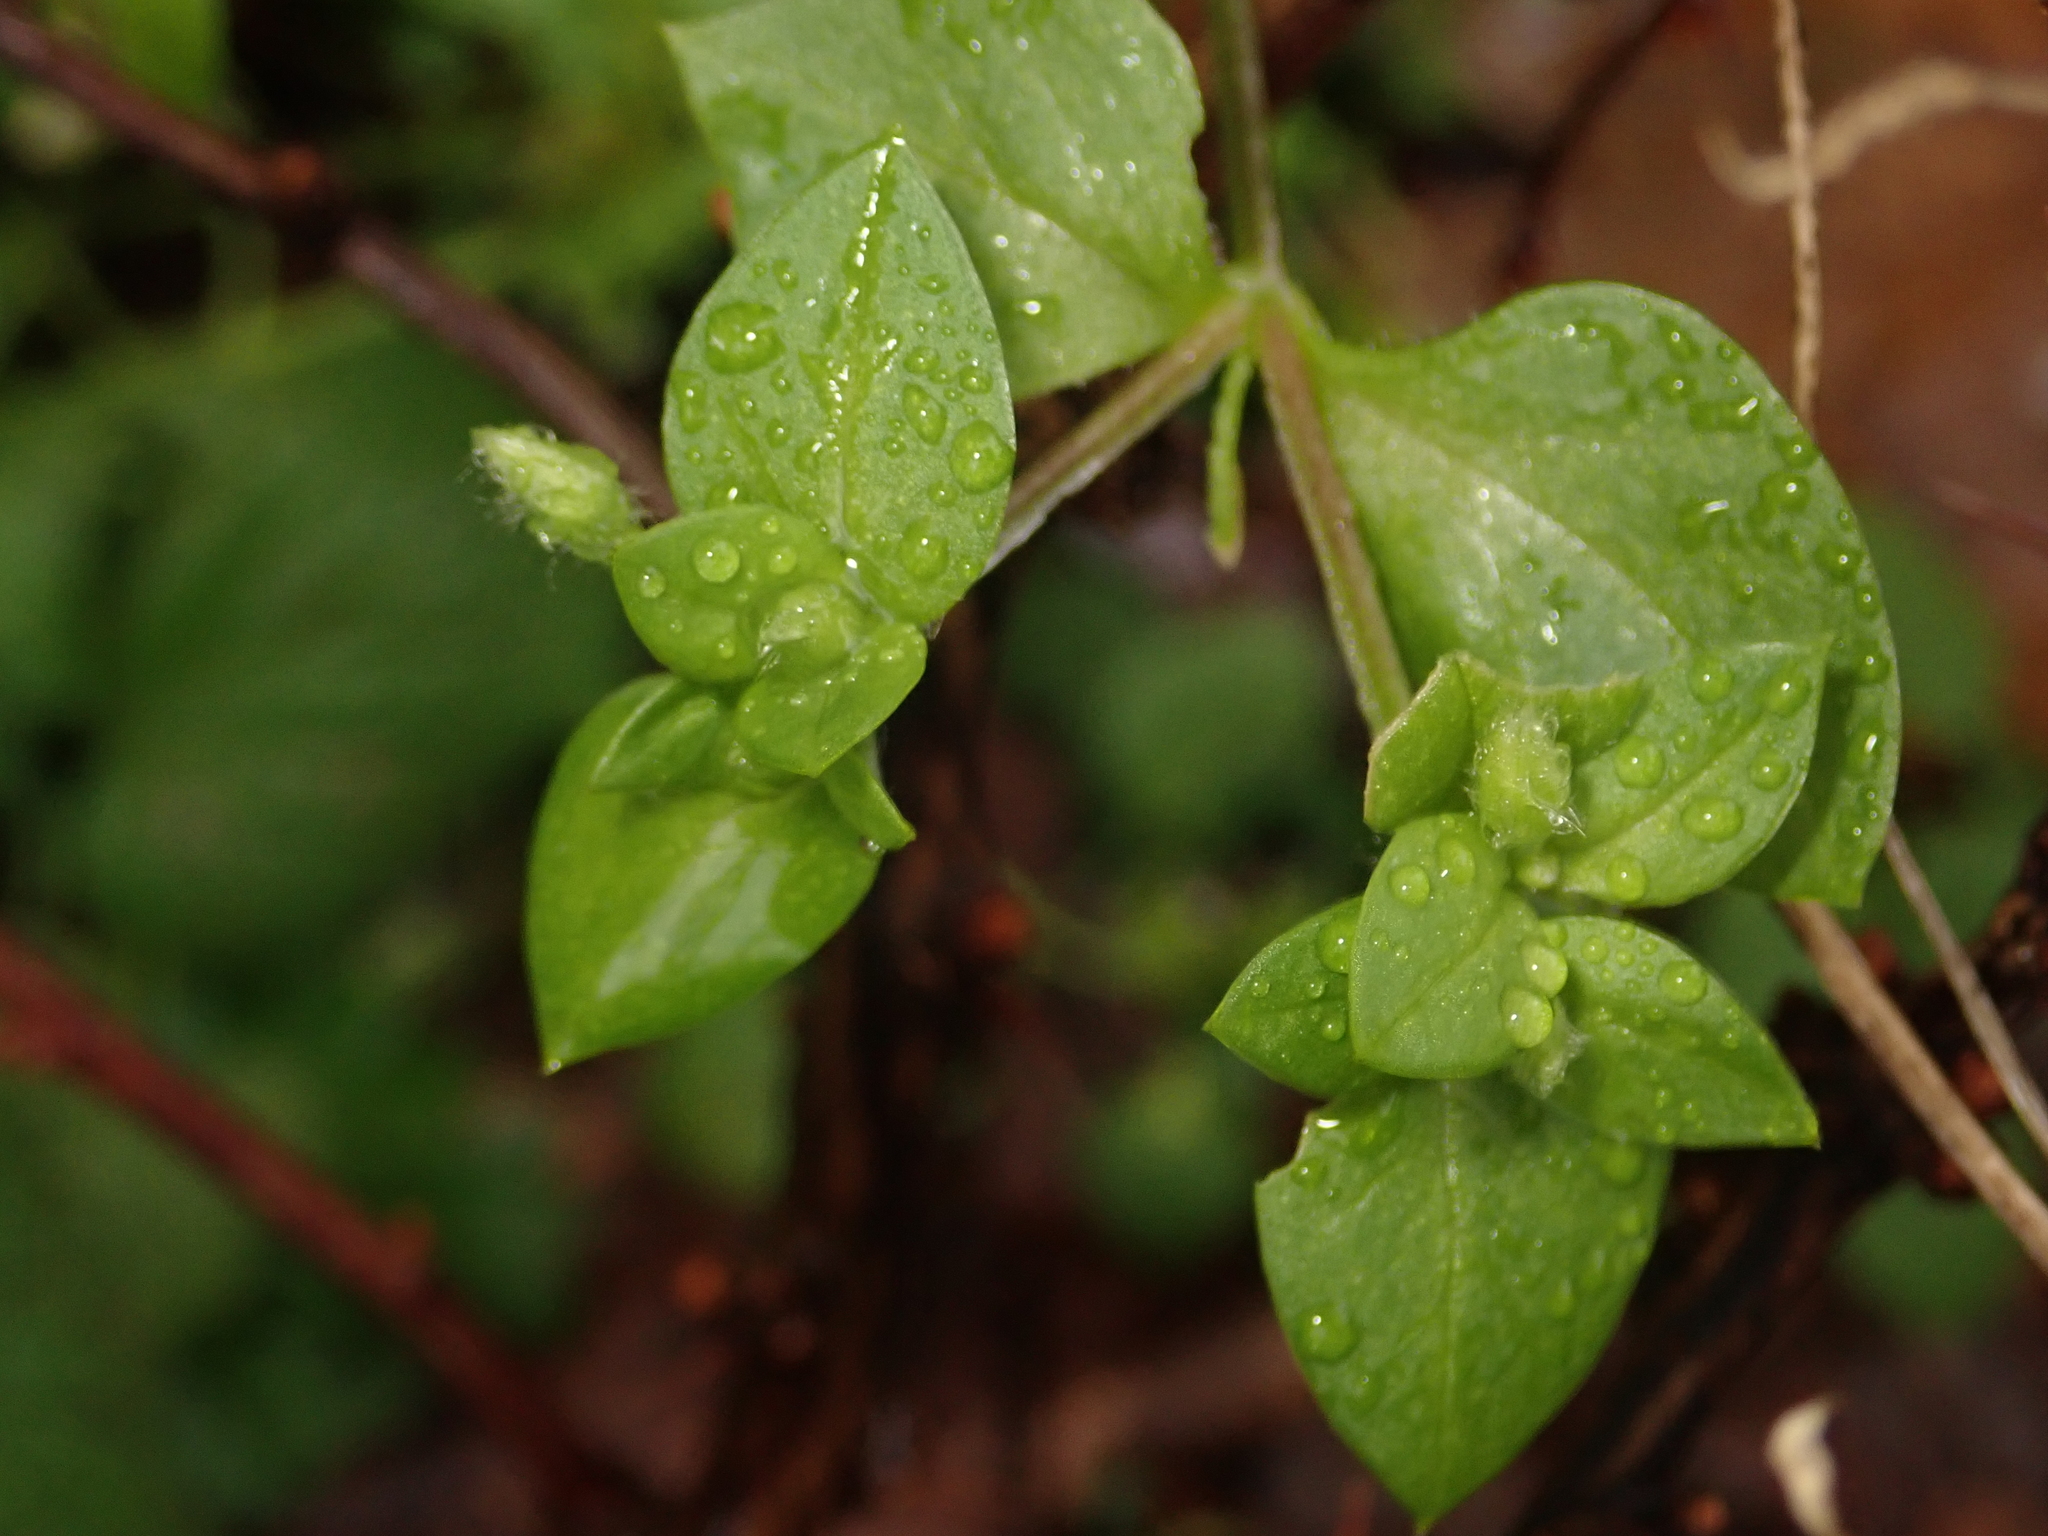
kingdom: Plantae
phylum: Tracheophyta
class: Magnoliopsida
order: Caryophyllales
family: Caryophyllaceae
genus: Stellaria
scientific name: Stellaria media
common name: Common chickweed
